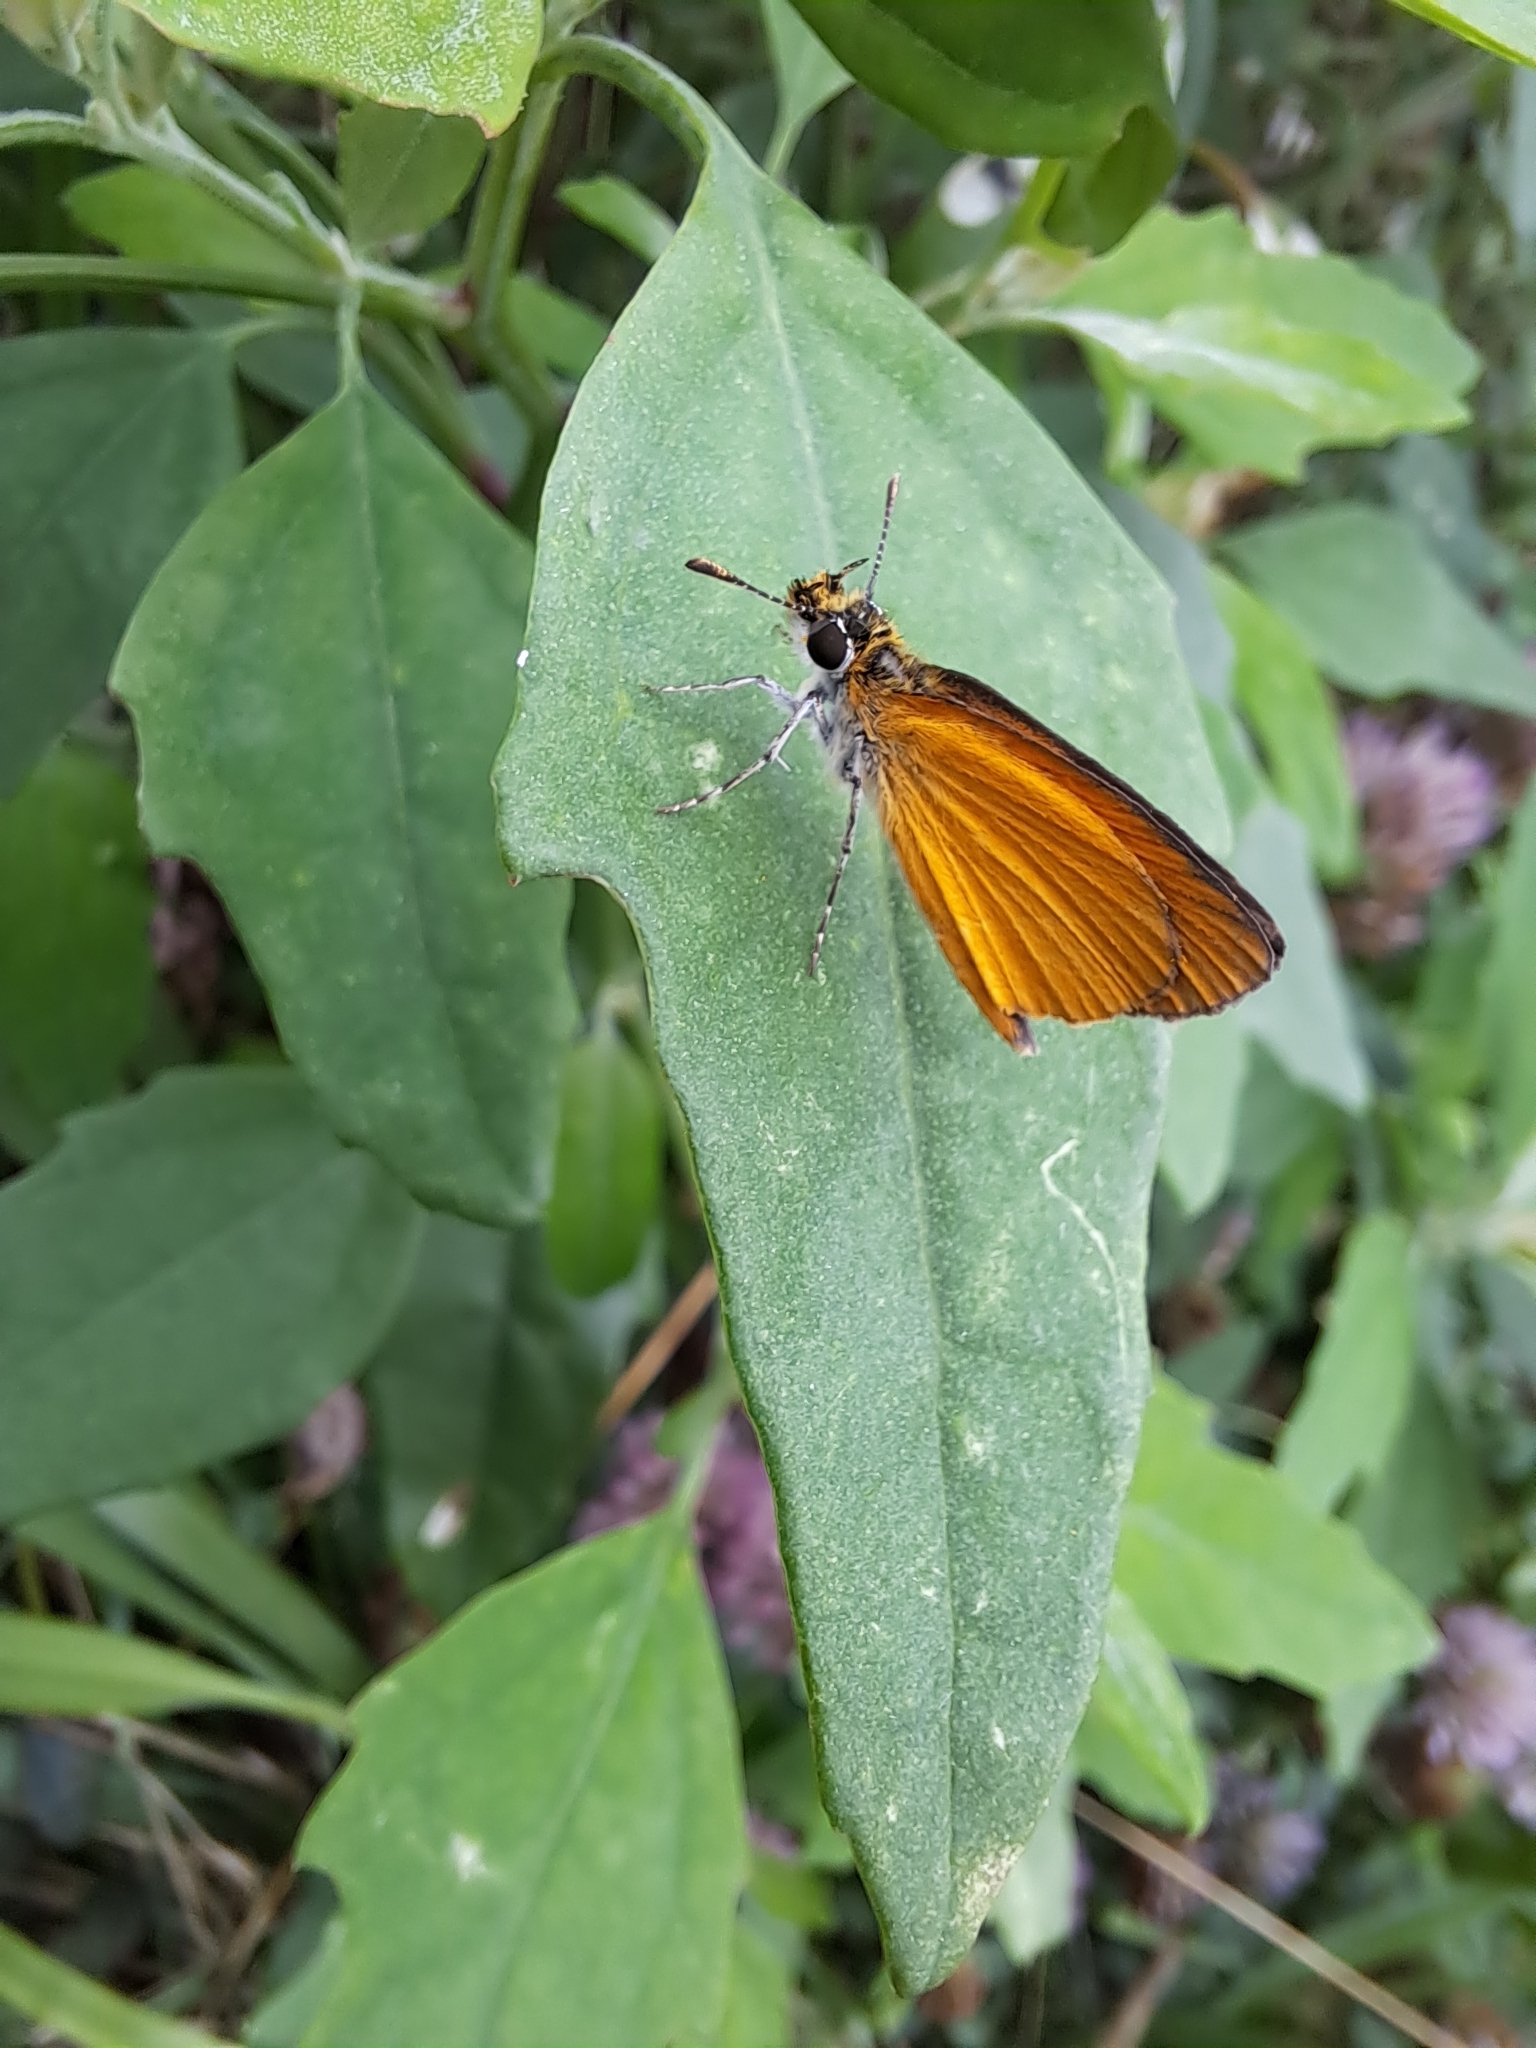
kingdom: Animalia
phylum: Arthropoda
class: Insecta
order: Lepidoptera
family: Hesperiidae
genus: Ancyloxypha
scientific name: Ancyloxypha numitor
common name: Least skipper
